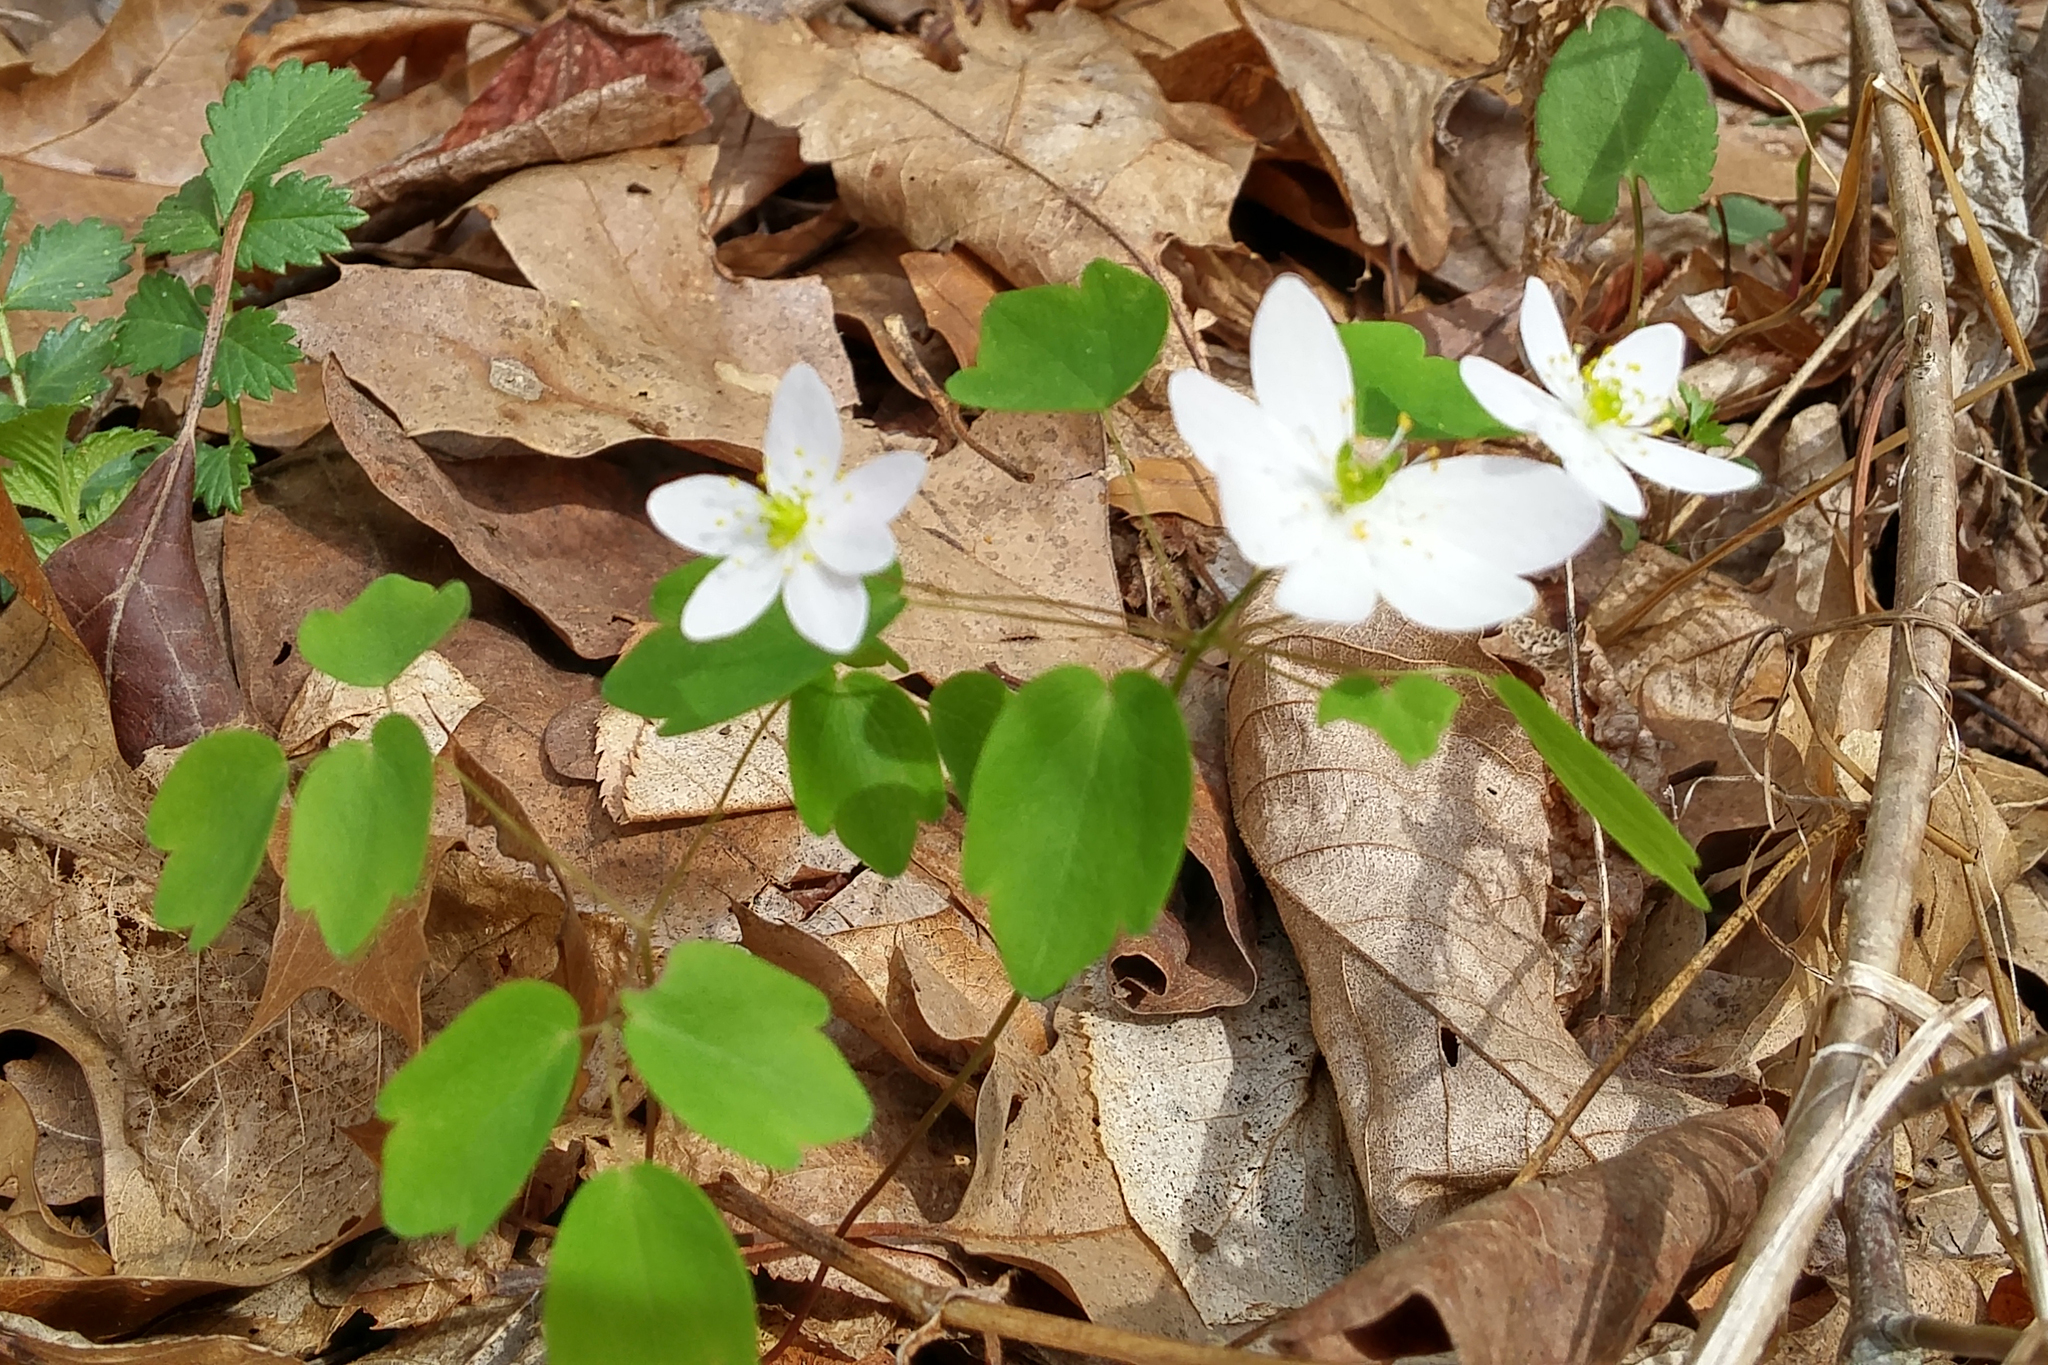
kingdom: Plantae
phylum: Tracheophyta
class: Magnoliopsida
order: Ranunculales
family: Ranunculaceae
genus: Thalictrum
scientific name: Thalictrum thalictroides
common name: Rue-anemone
